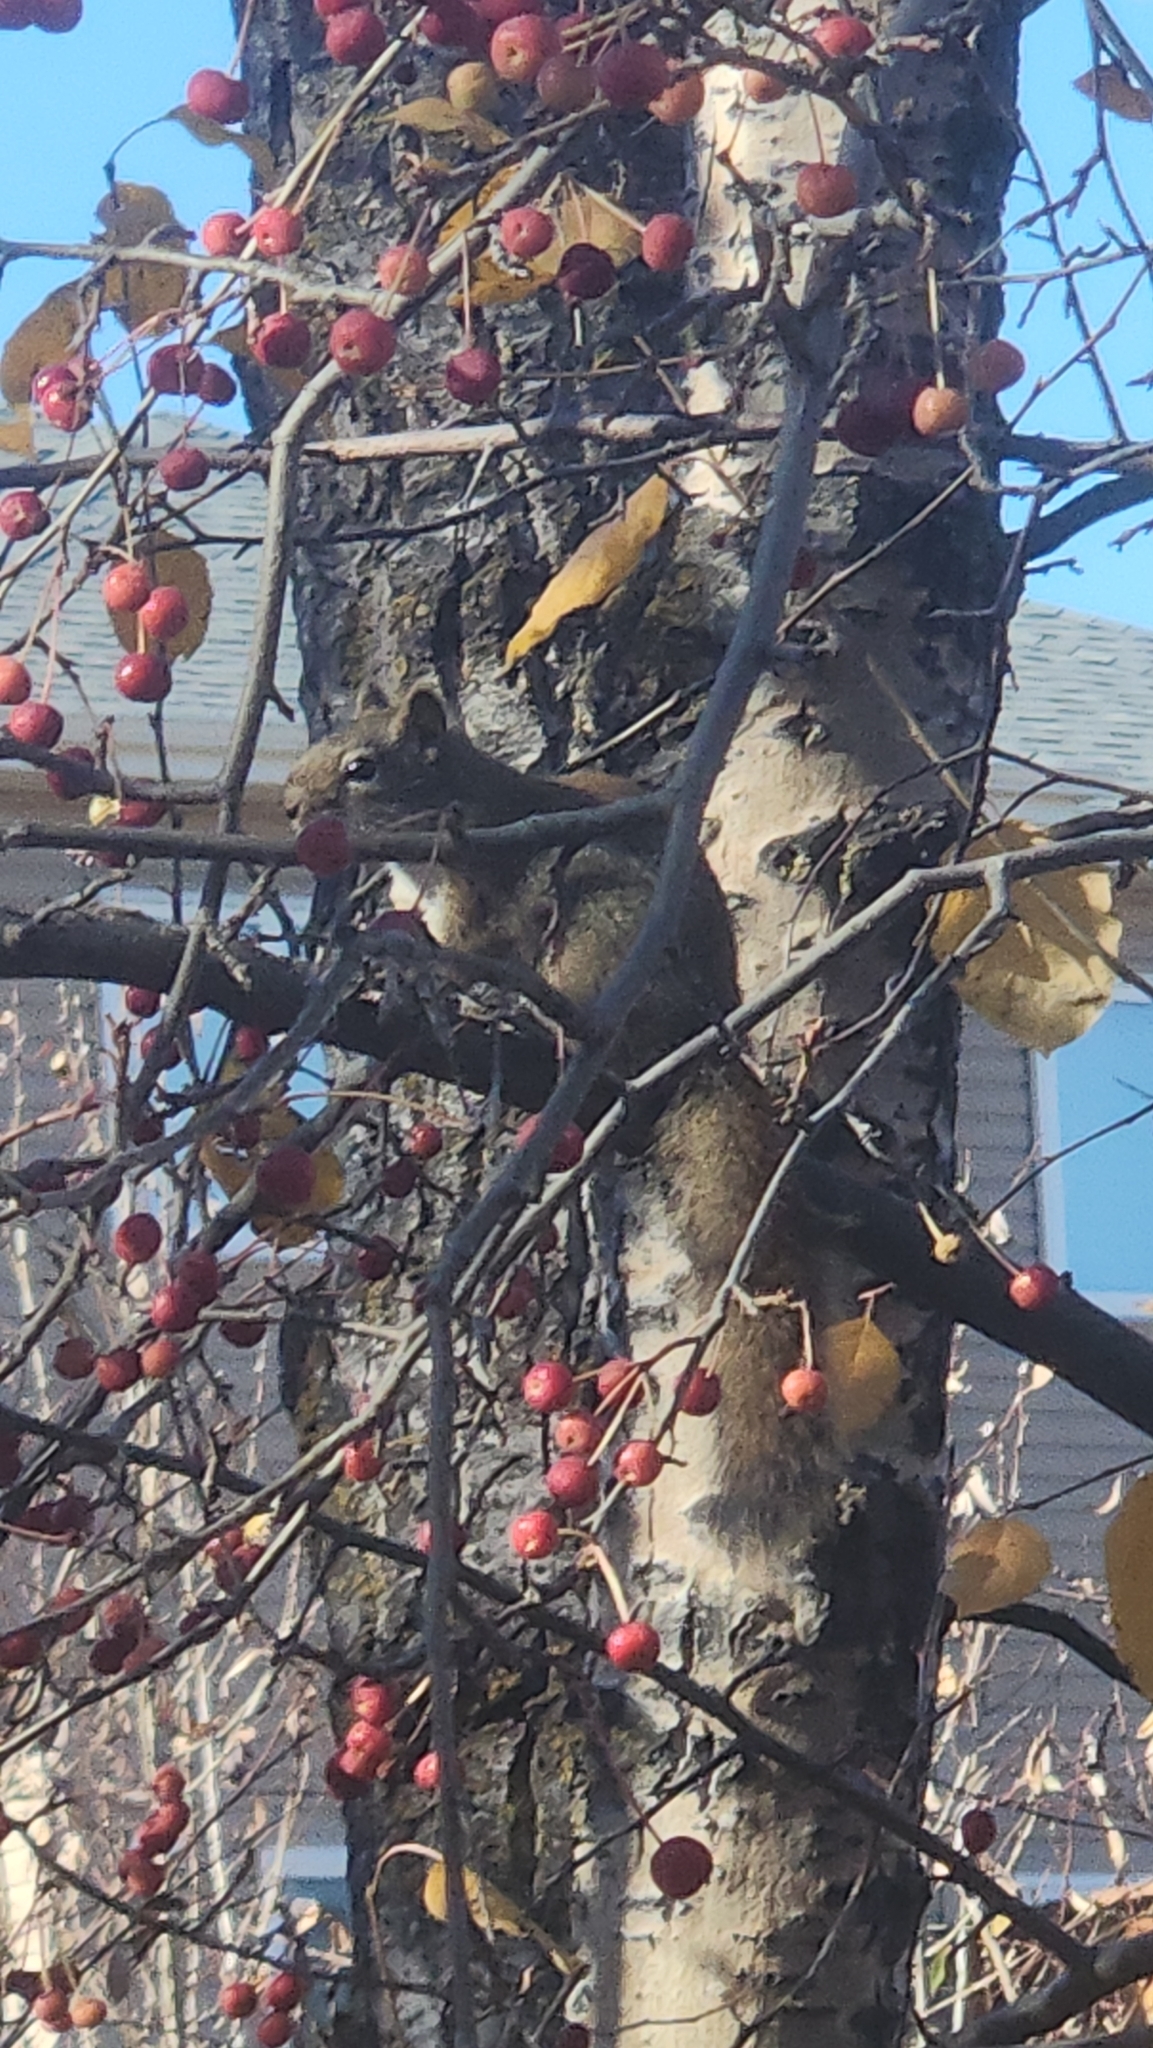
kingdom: Animalia
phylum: Chordata
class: Mammalia
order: Rodentia
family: Sciuridae
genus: Tamiasciurus
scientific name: Tamiasciurus hudsonicus
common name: Red squirrel
